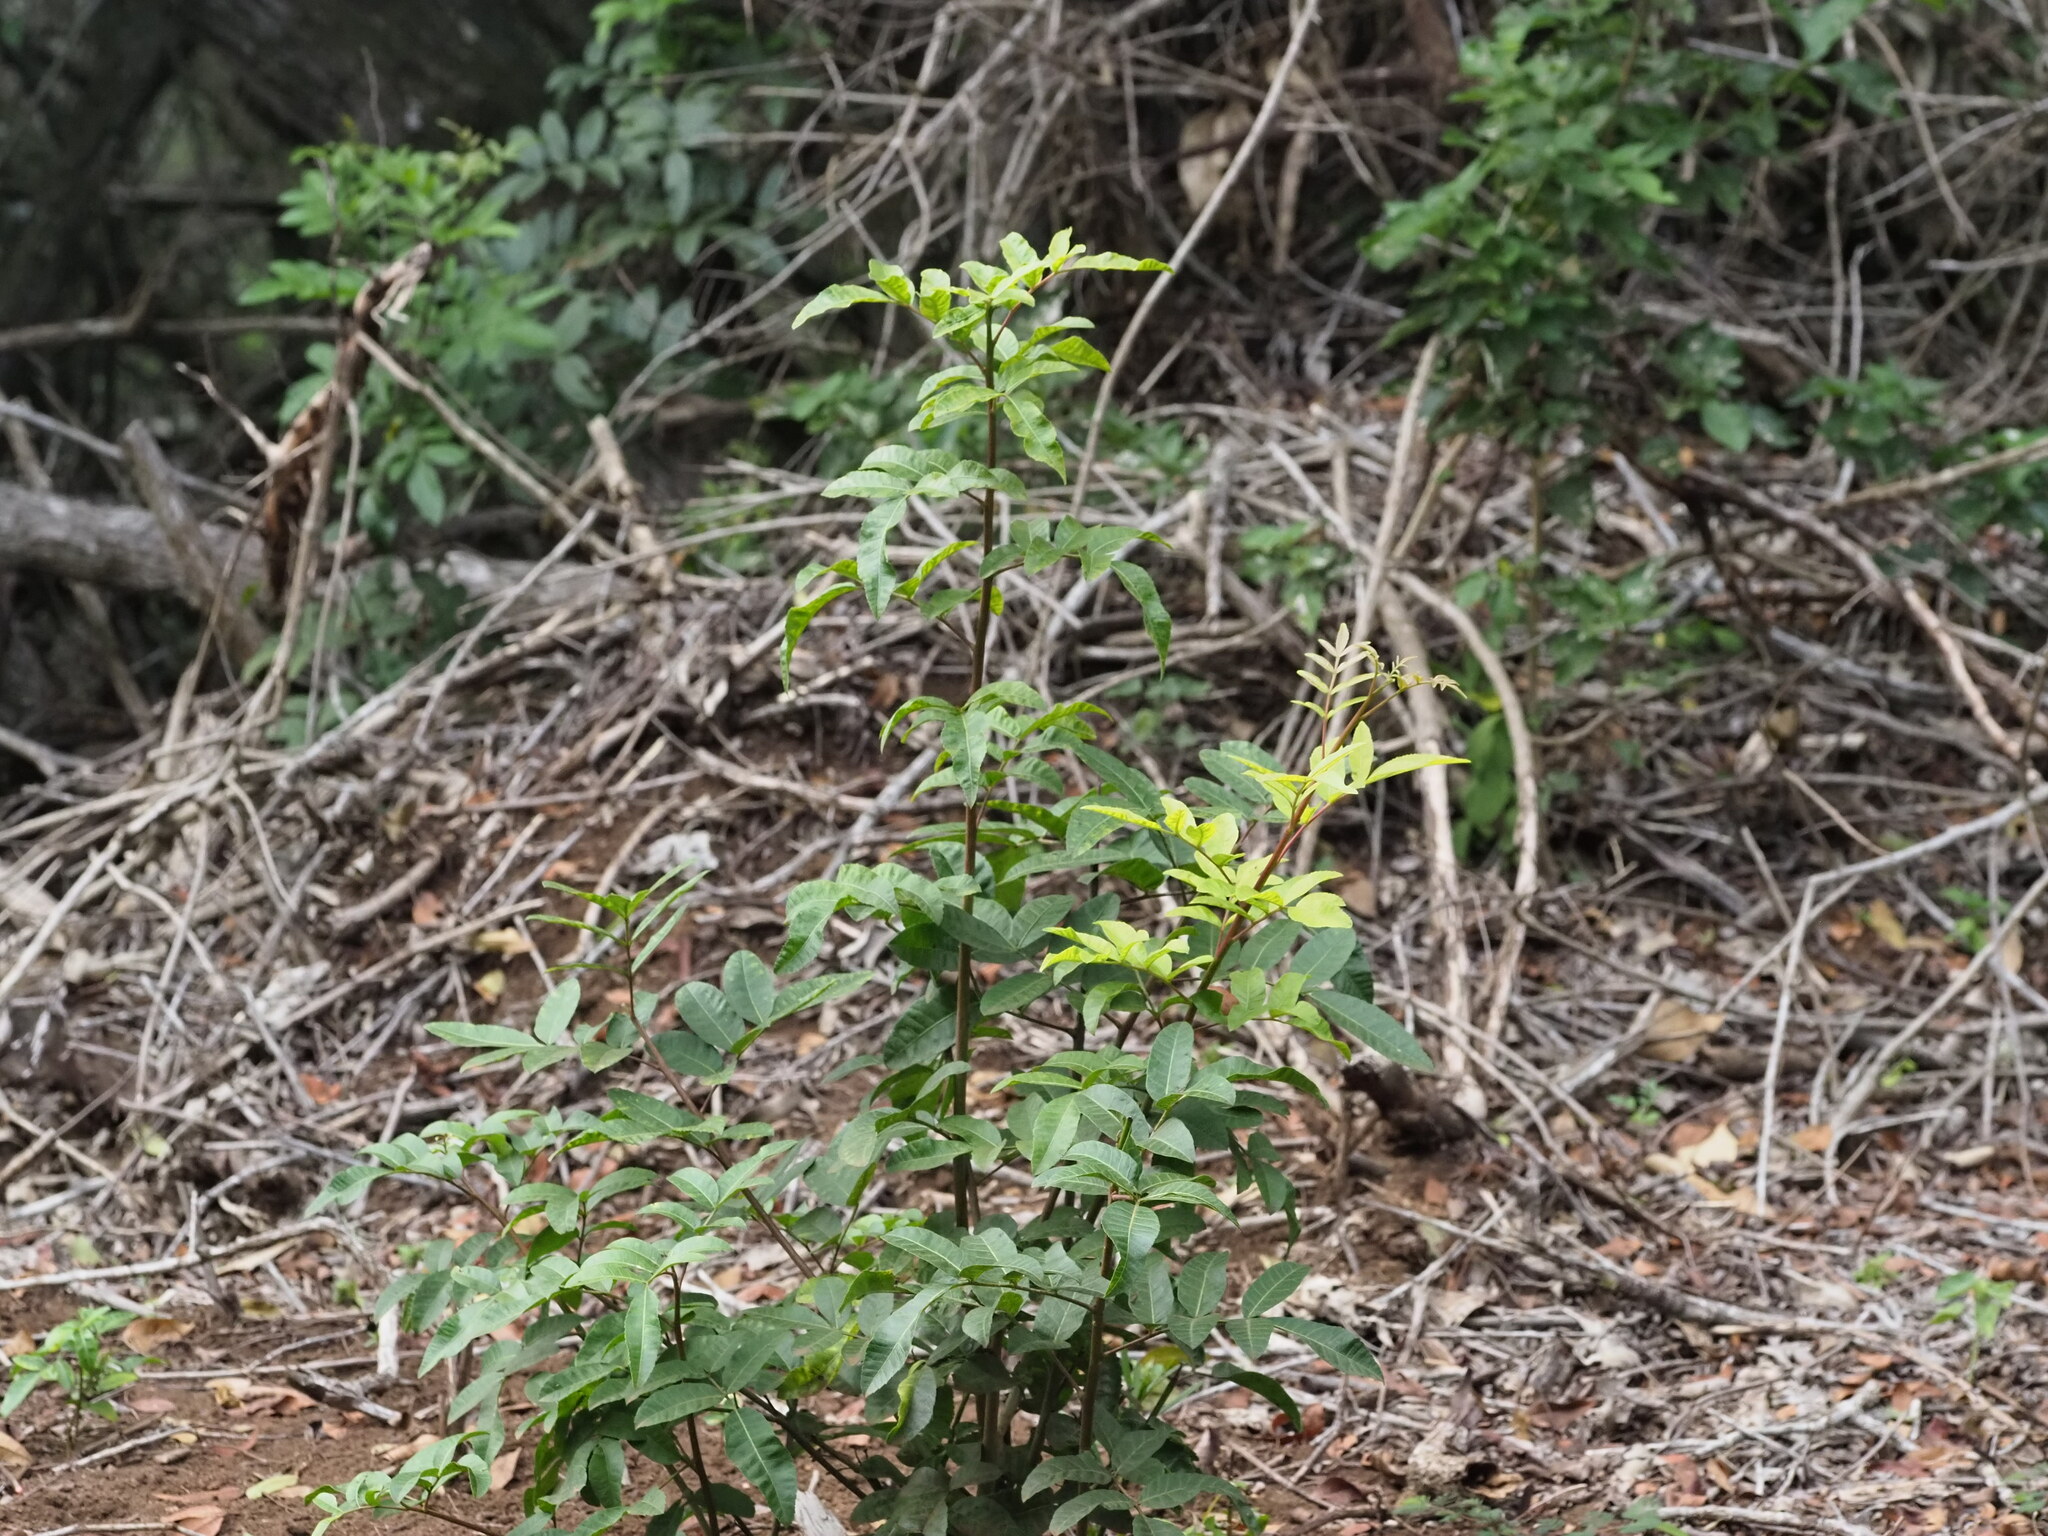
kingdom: Plantae
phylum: Tracheophyta
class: Magnoliopsida
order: Sapindales
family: Anacardiaceae
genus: Schinus
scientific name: Schinus terebinthifolia
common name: Brazilian peppertree
